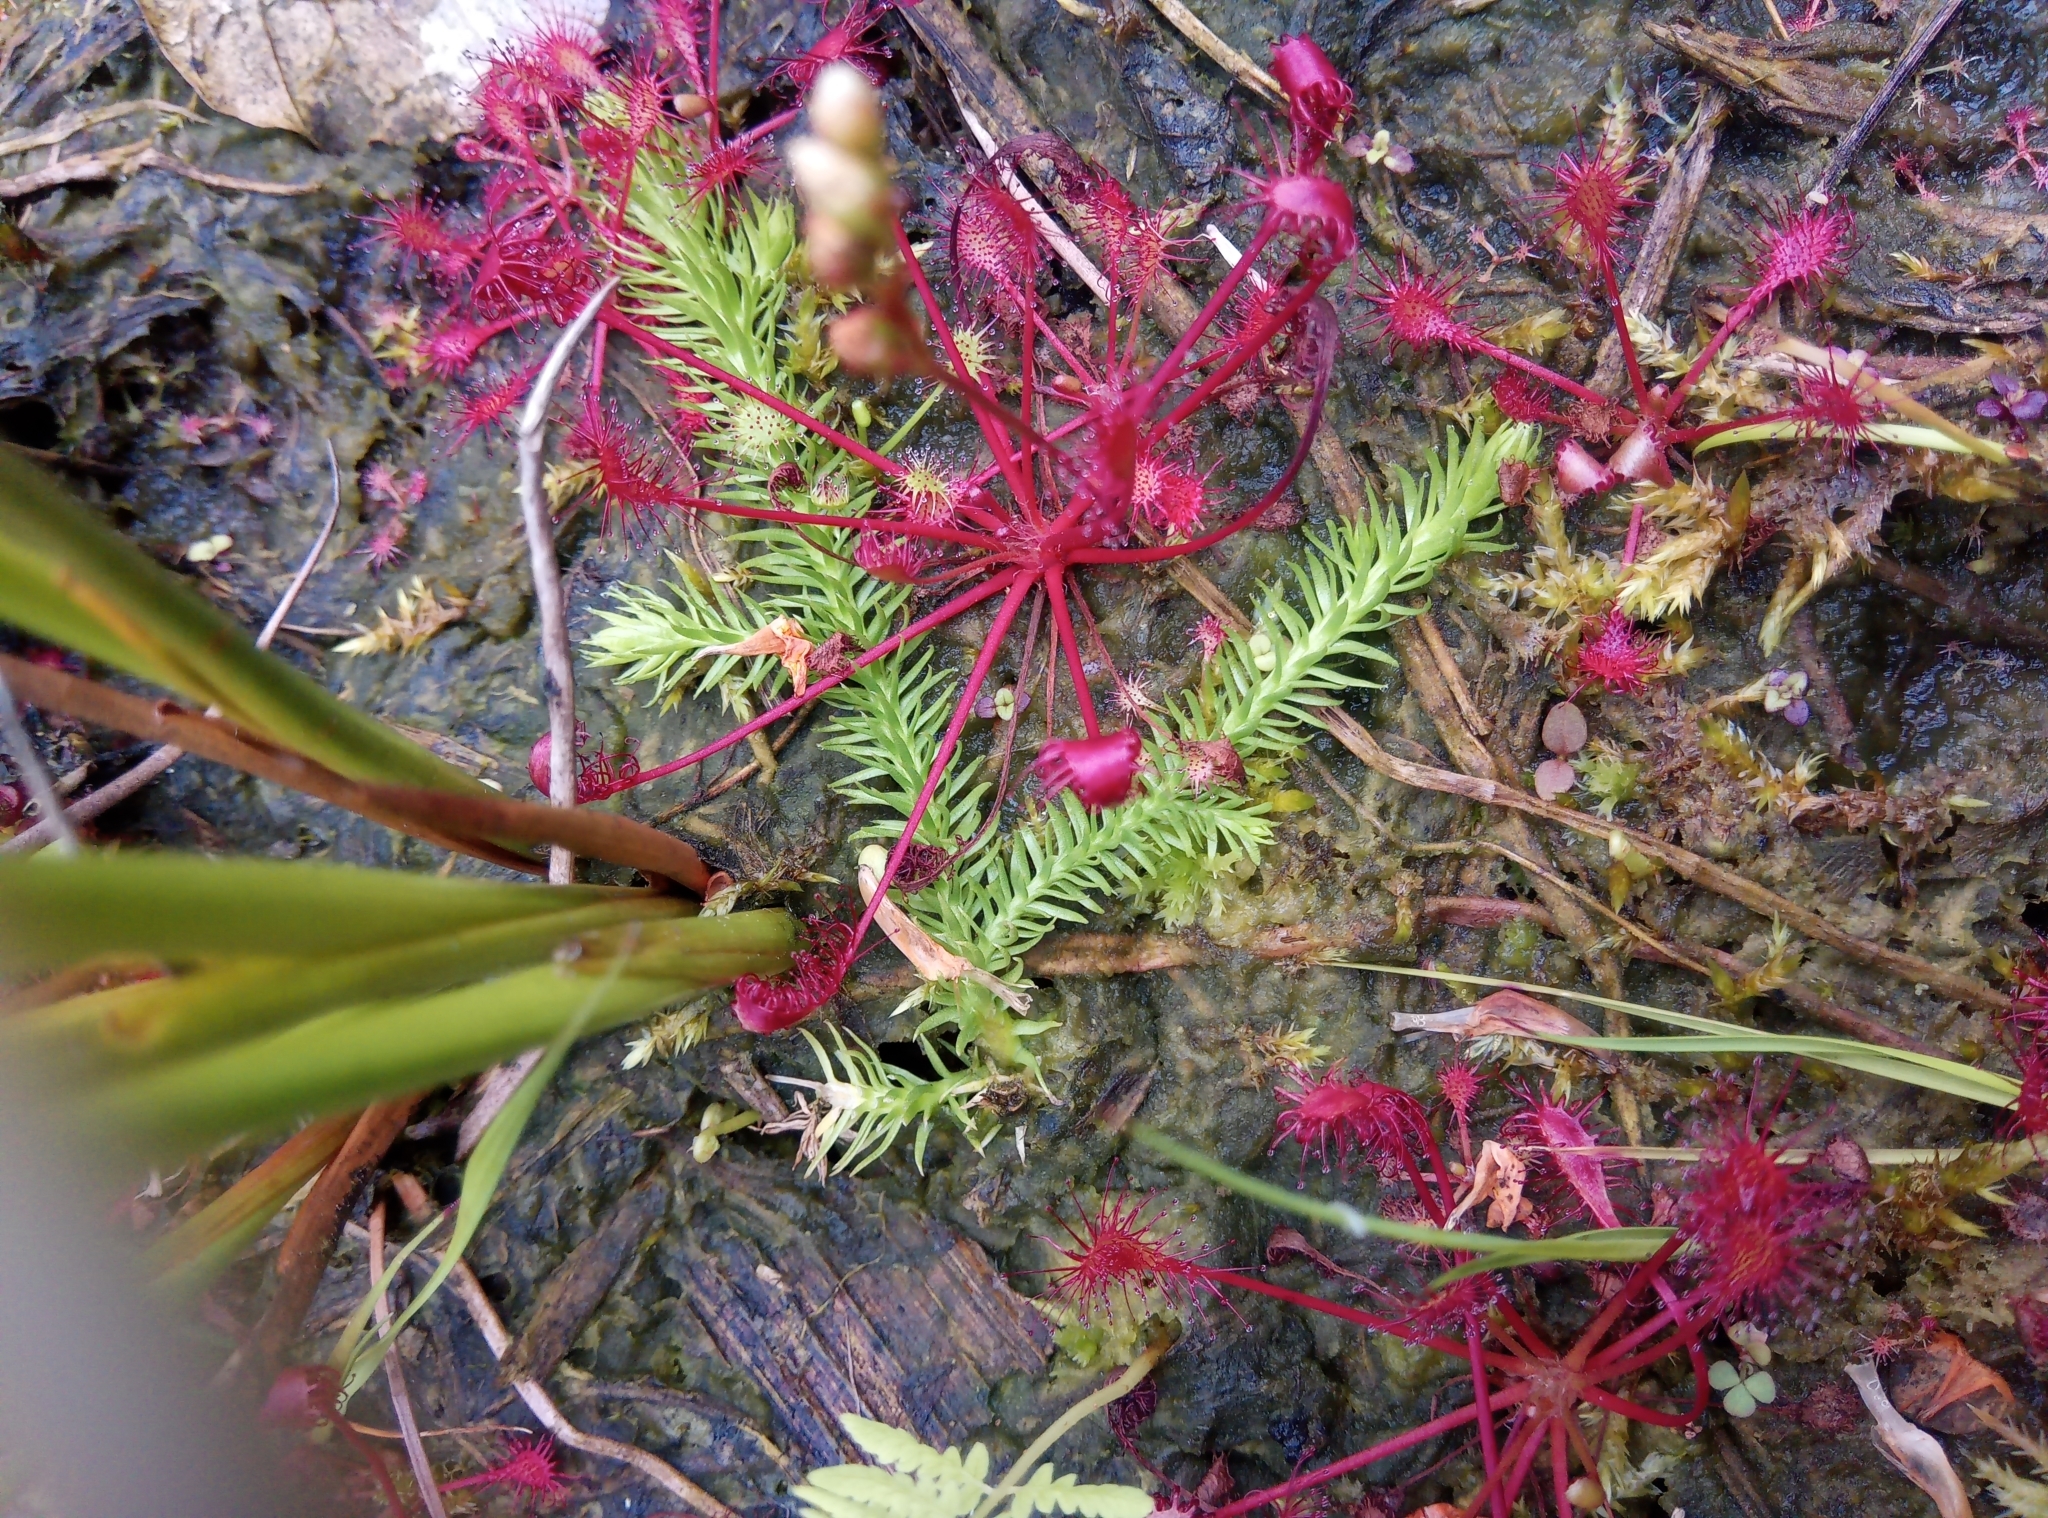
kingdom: Plantae
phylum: Tracheophyta
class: Lycopodiopsida
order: Lycopodiales
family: Lycopodiaceae
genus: Lycopodiella
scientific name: Lycopodiella inundata
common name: Marsh clubmoss
